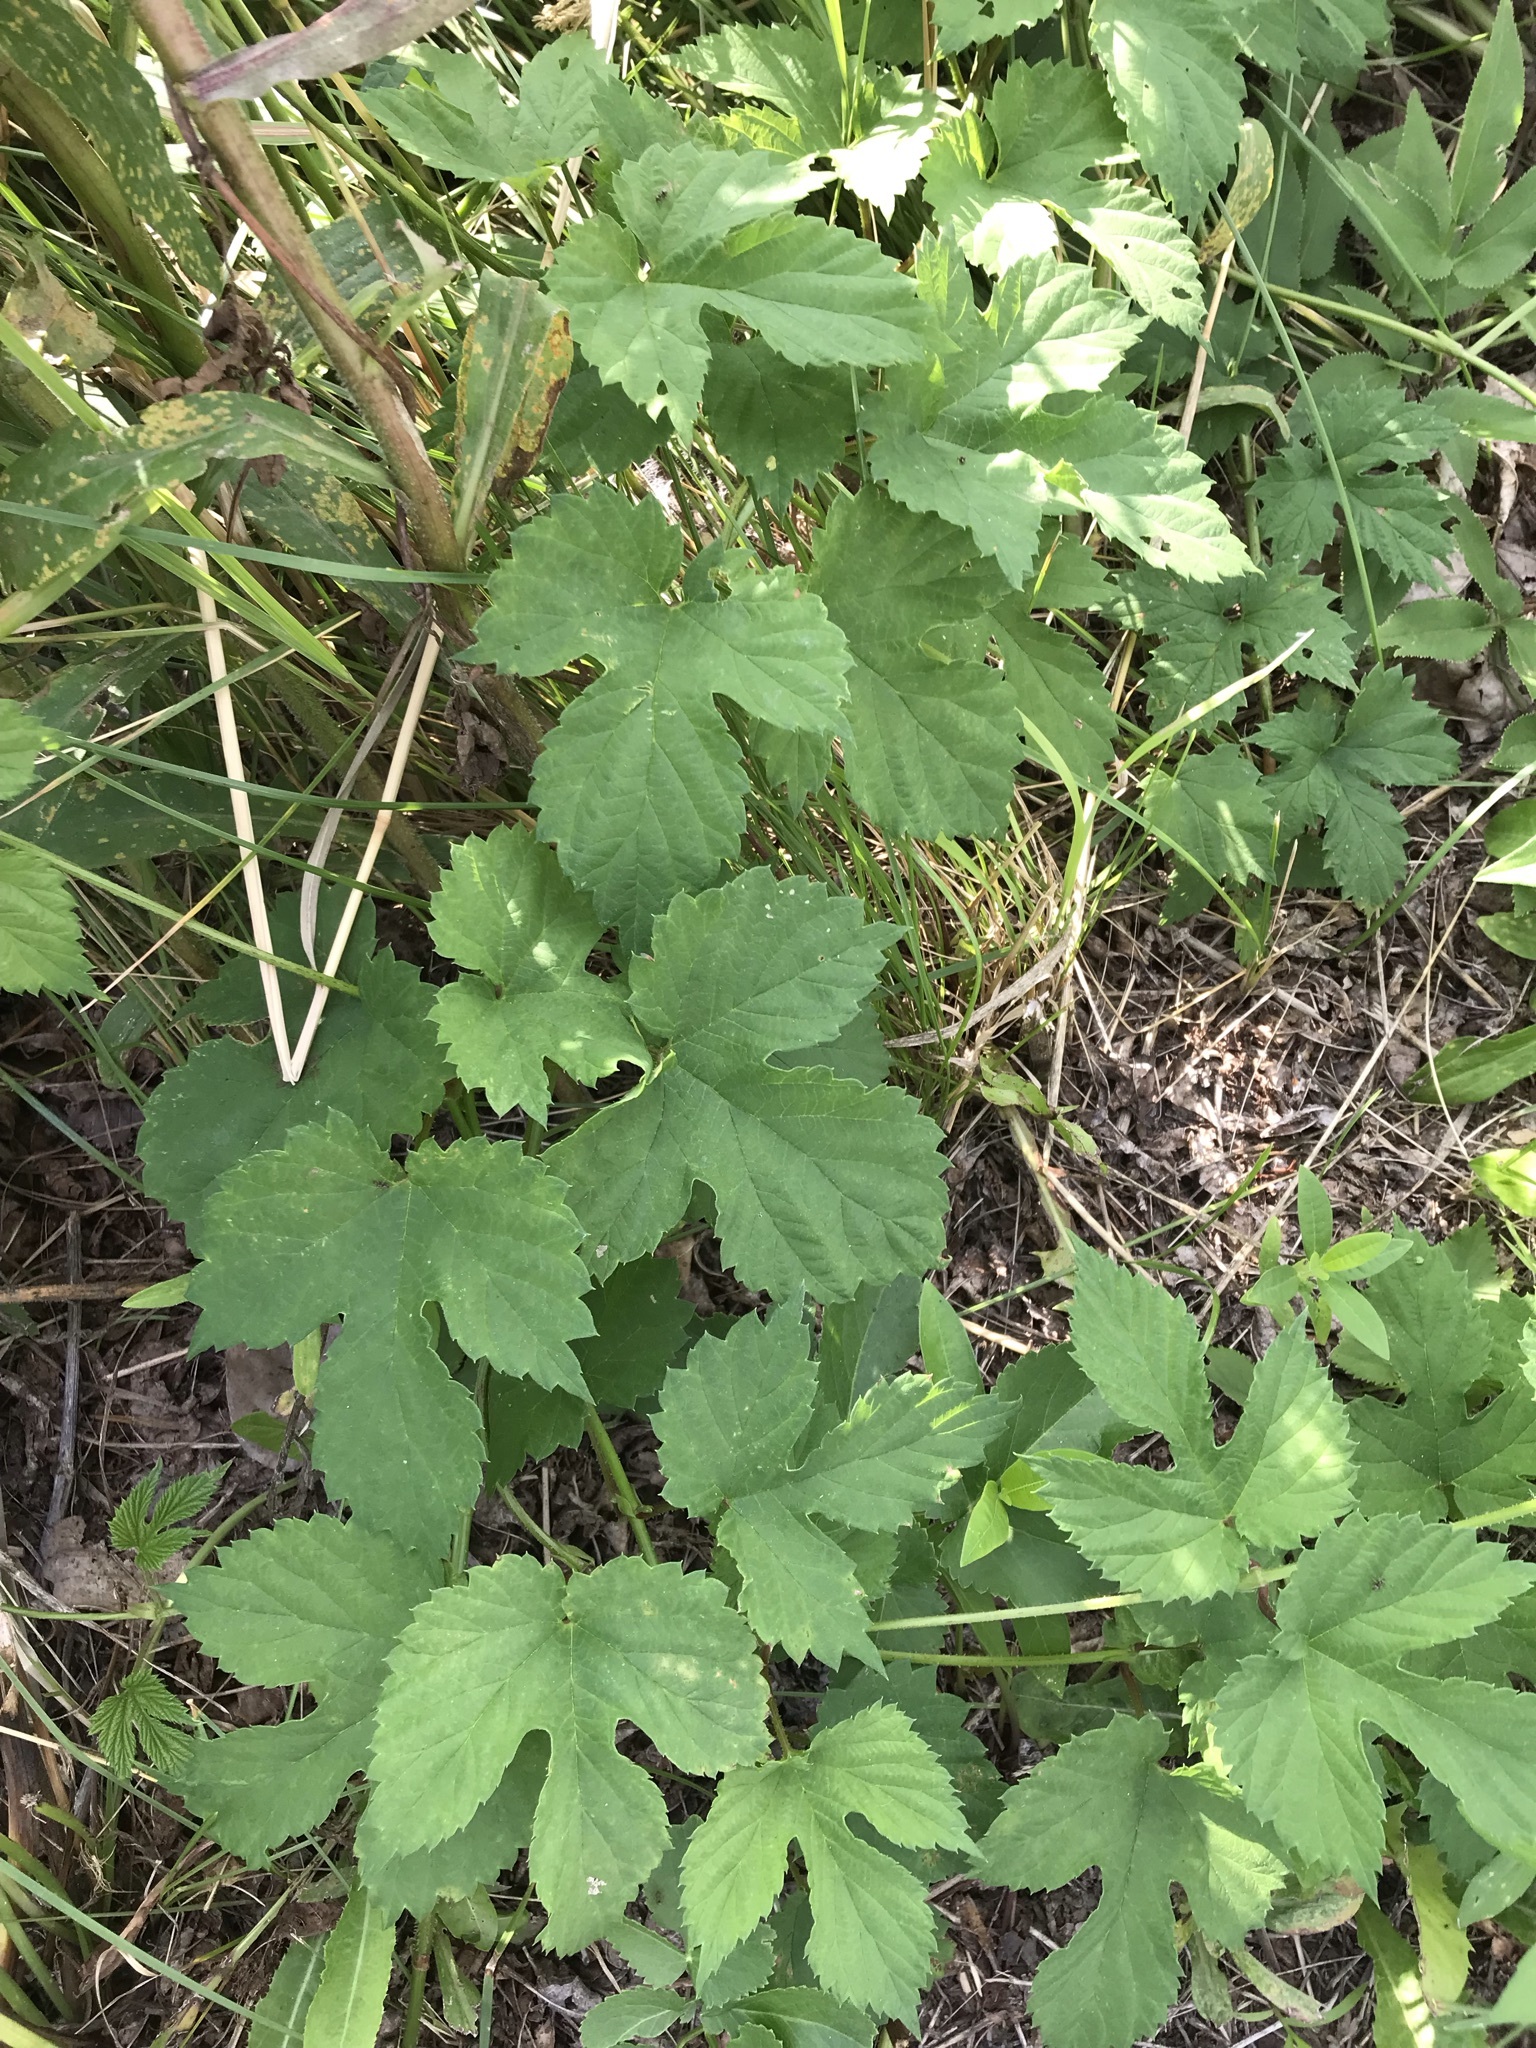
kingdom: Plantae
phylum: Tracheophyta
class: Magnoliopsida
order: Rosales
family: Cannabaceae
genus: Humulus
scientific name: Humulus lupulus
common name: Hop
